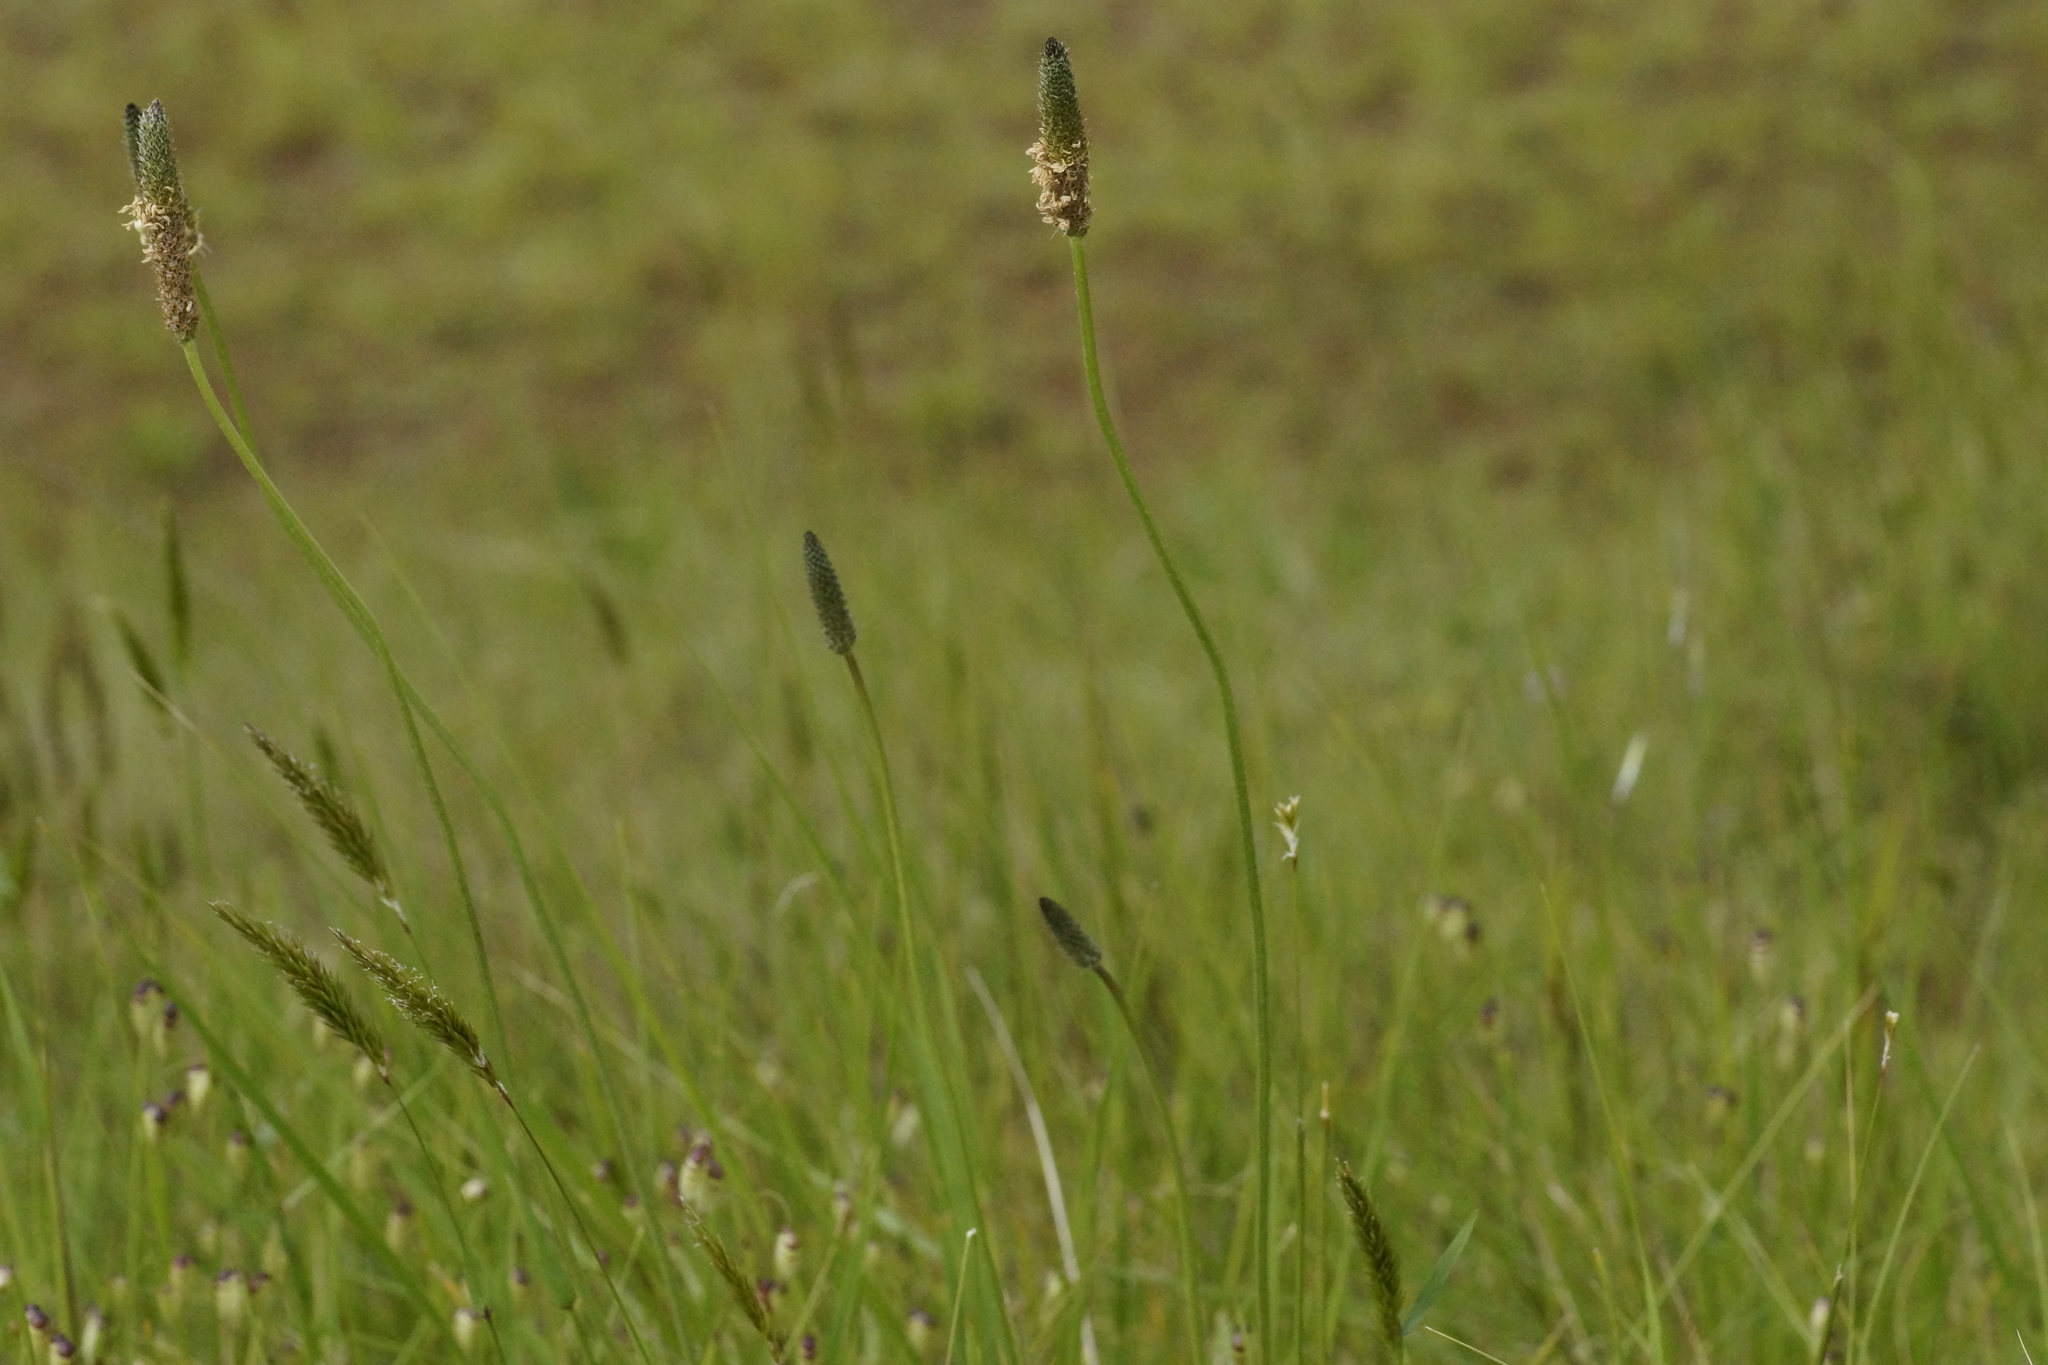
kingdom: Plantae
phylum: Tracheophyta
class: Magnoliopsida
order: Lamiales
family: Plantaginaceae
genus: Plantago
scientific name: Plantago lanceolata
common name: Ribwort plantain
